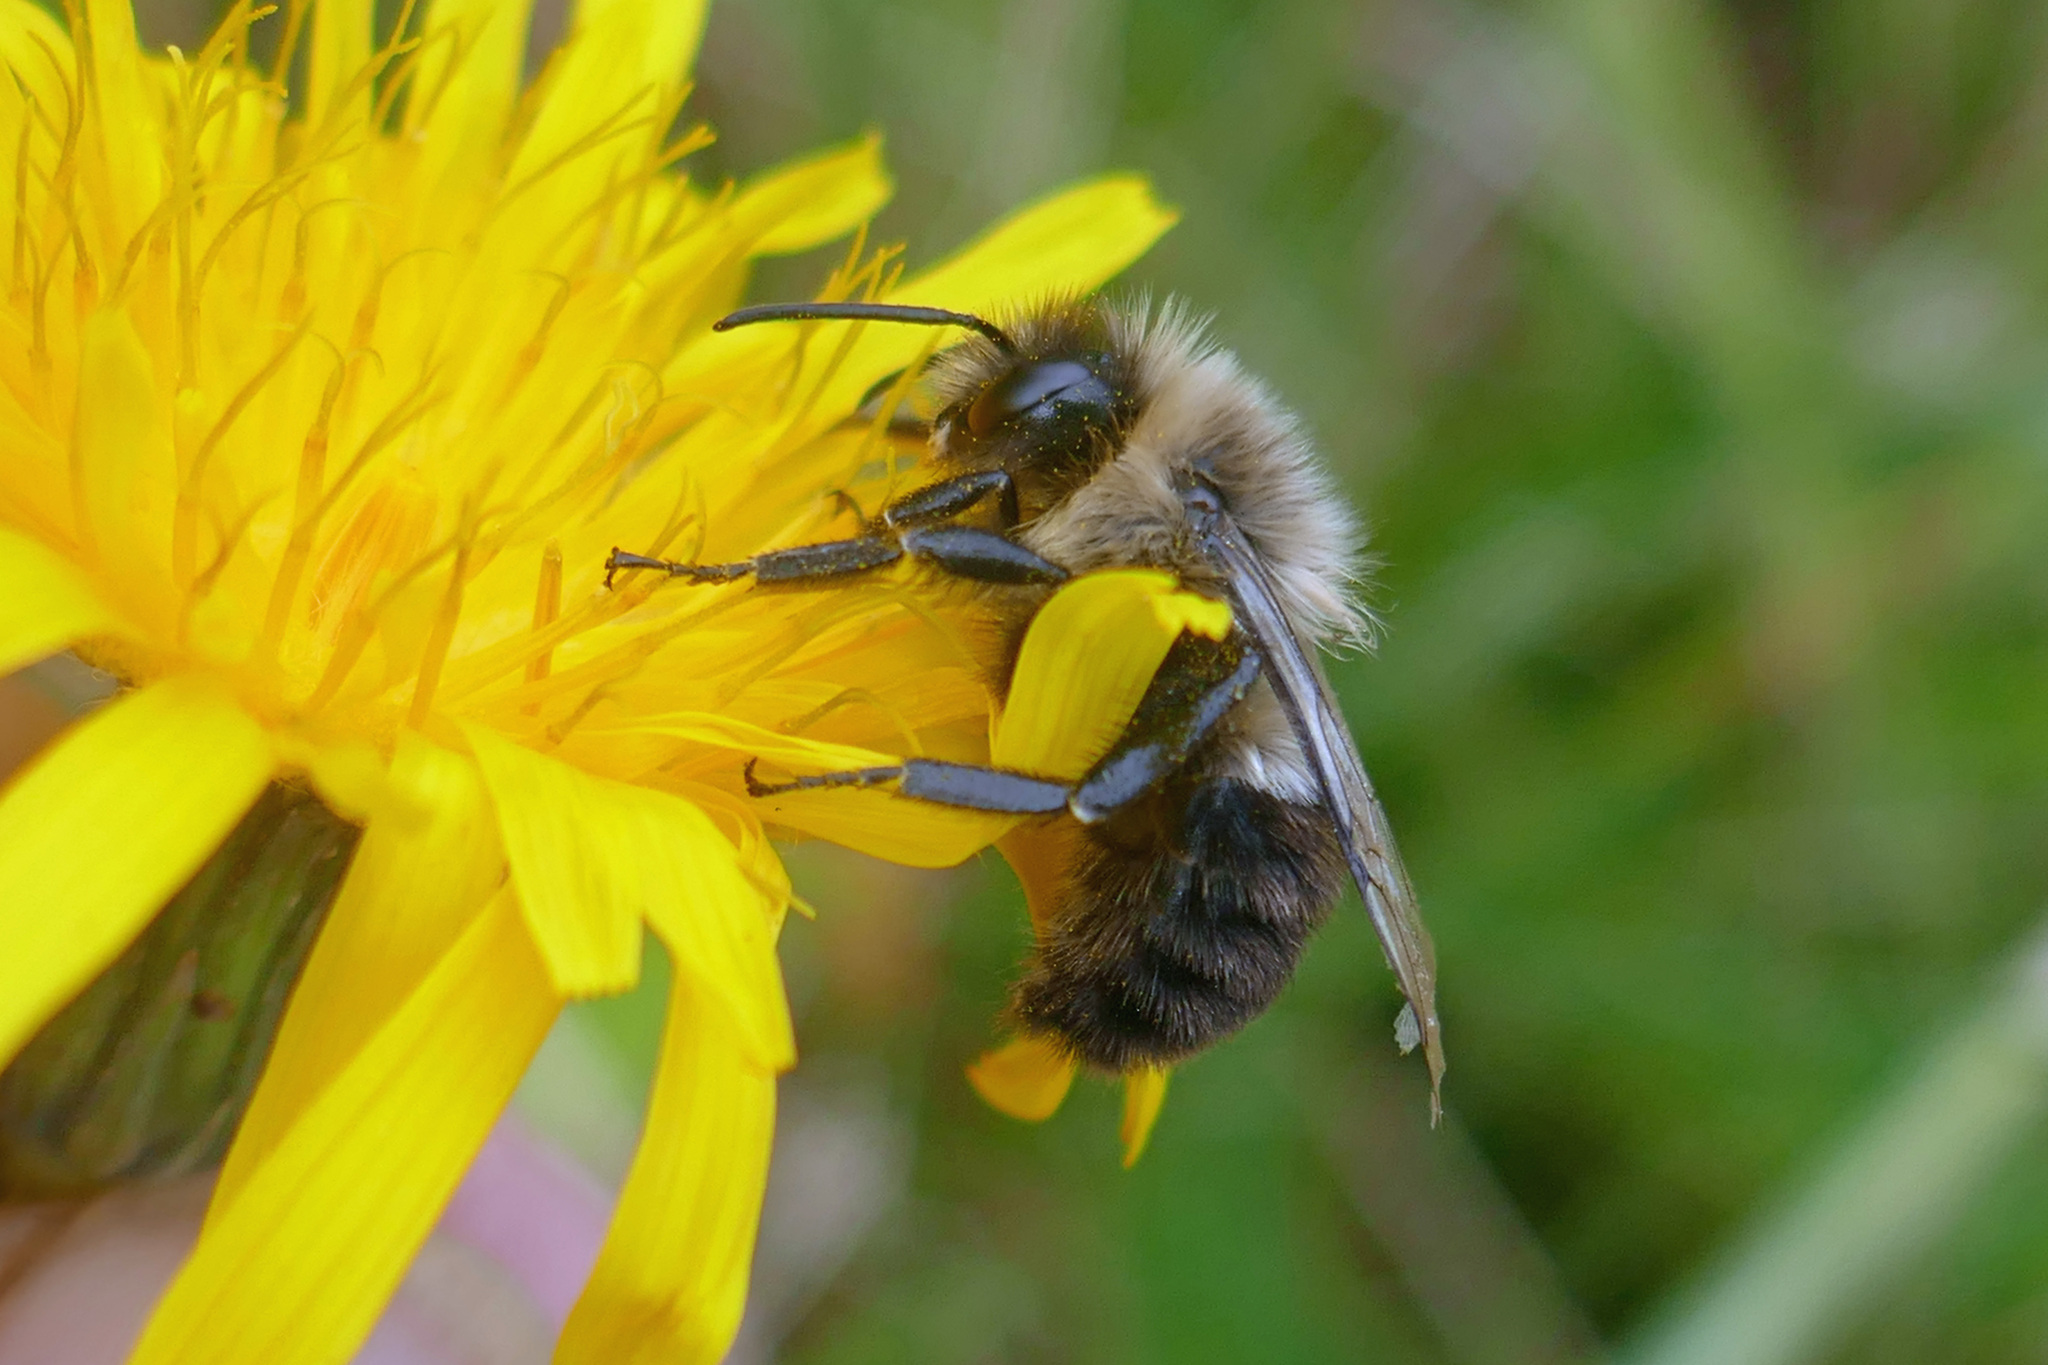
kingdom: Animalia
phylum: Arthropoda
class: Insecta
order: Hymenoptera
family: Apidae
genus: Bombus
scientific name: Bombus impatiens
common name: Common eastern bumble bee
